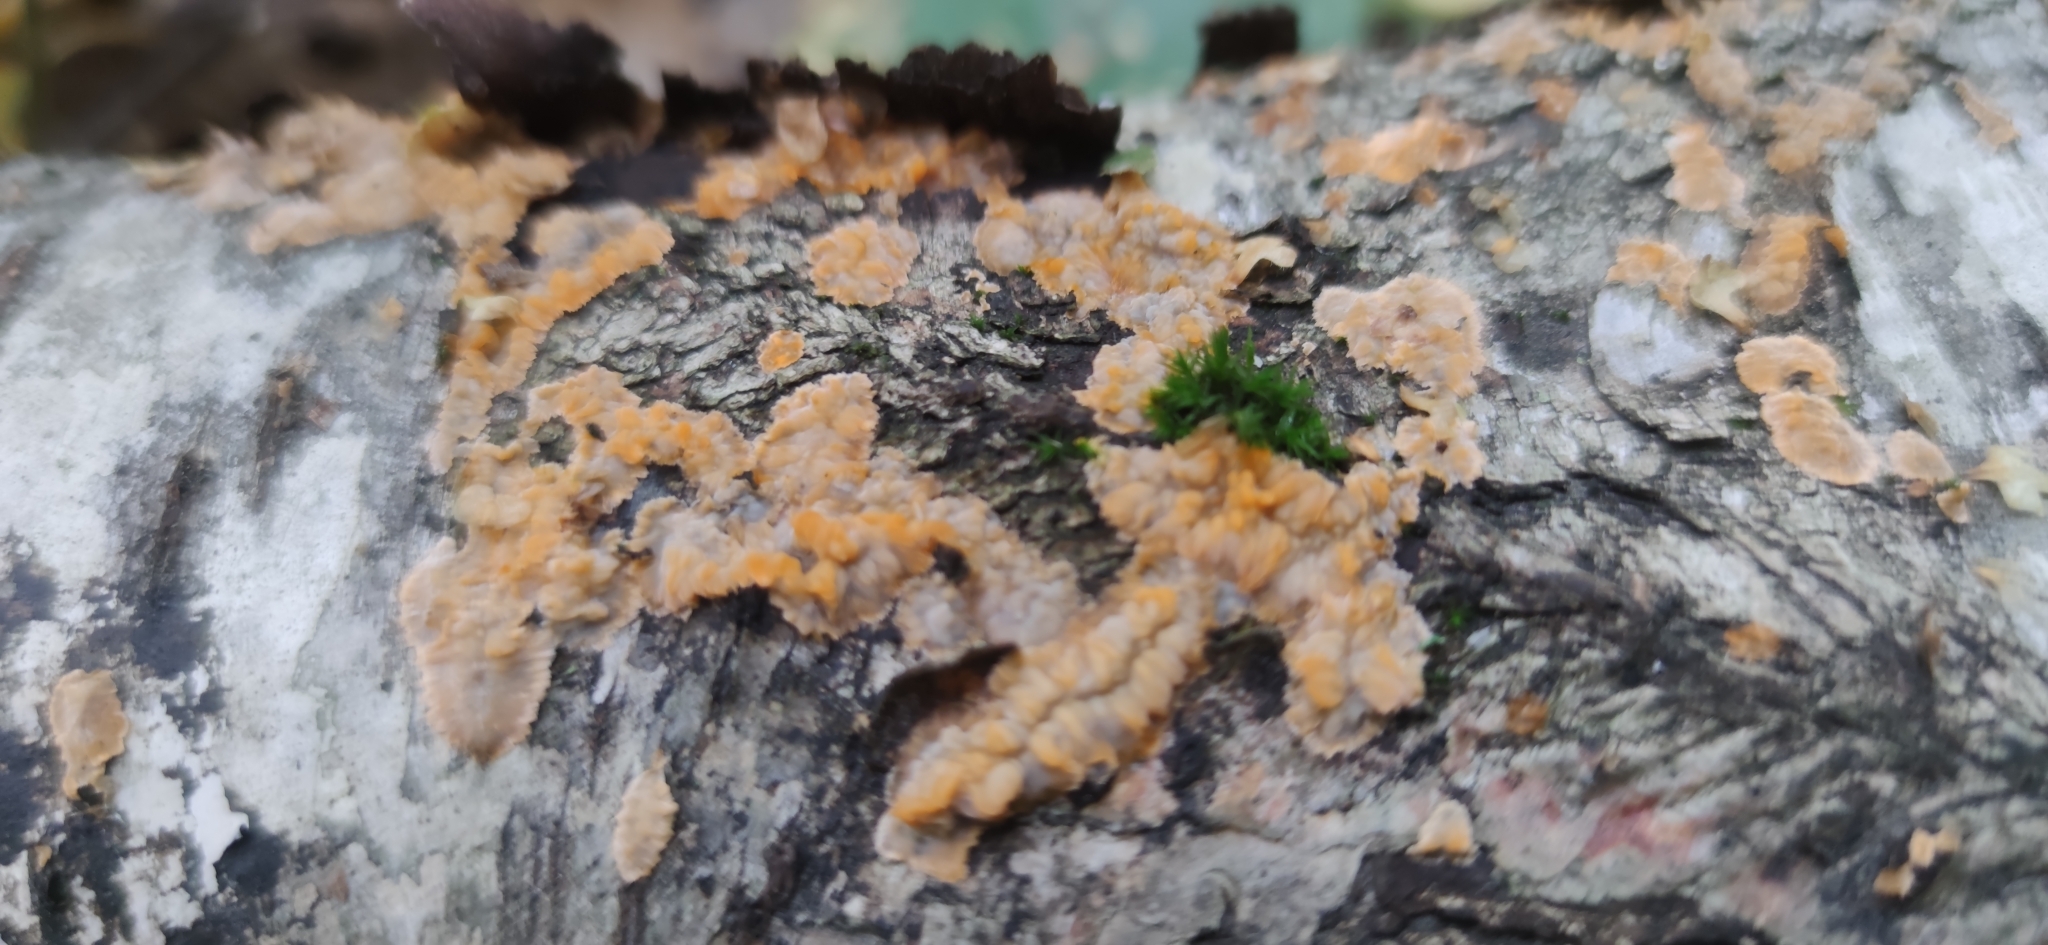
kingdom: Fungi
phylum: Basidiomycota
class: Agaricomycetes
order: Polyporales
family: Meruliaceae
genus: Phlebia
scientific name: Phlebia radiata
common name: Wrinkled crust
